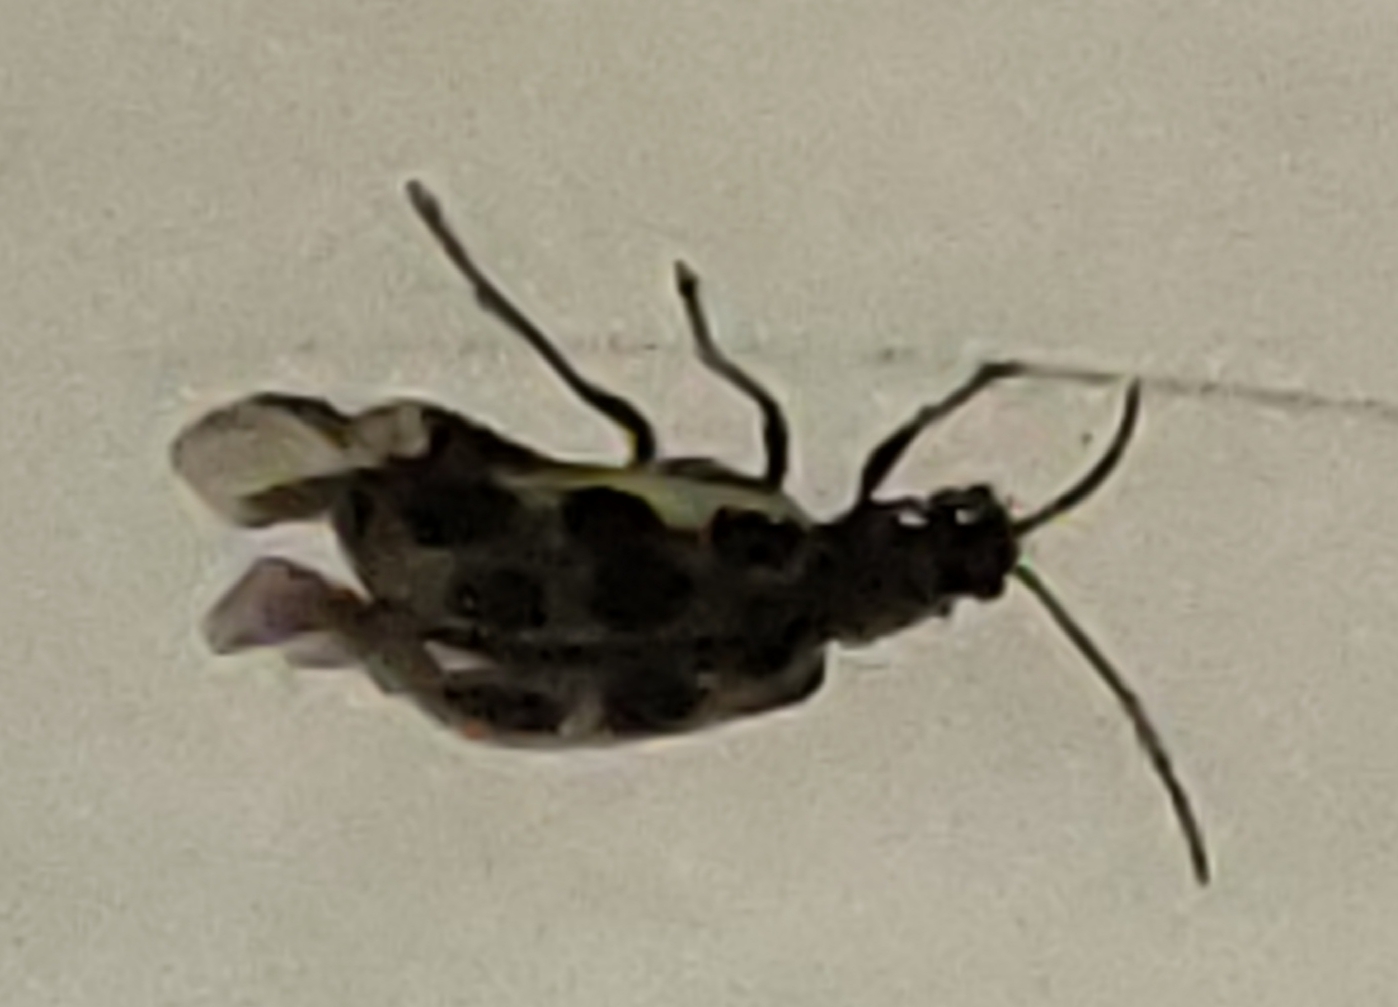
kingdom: Animalia
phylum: Arthropoda
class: Insecta
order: Coleoptera
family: Chrysomelidae
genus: Diabrotica
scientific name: Diabrotica undecimpunctata
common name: Spotted cucumber beetle
